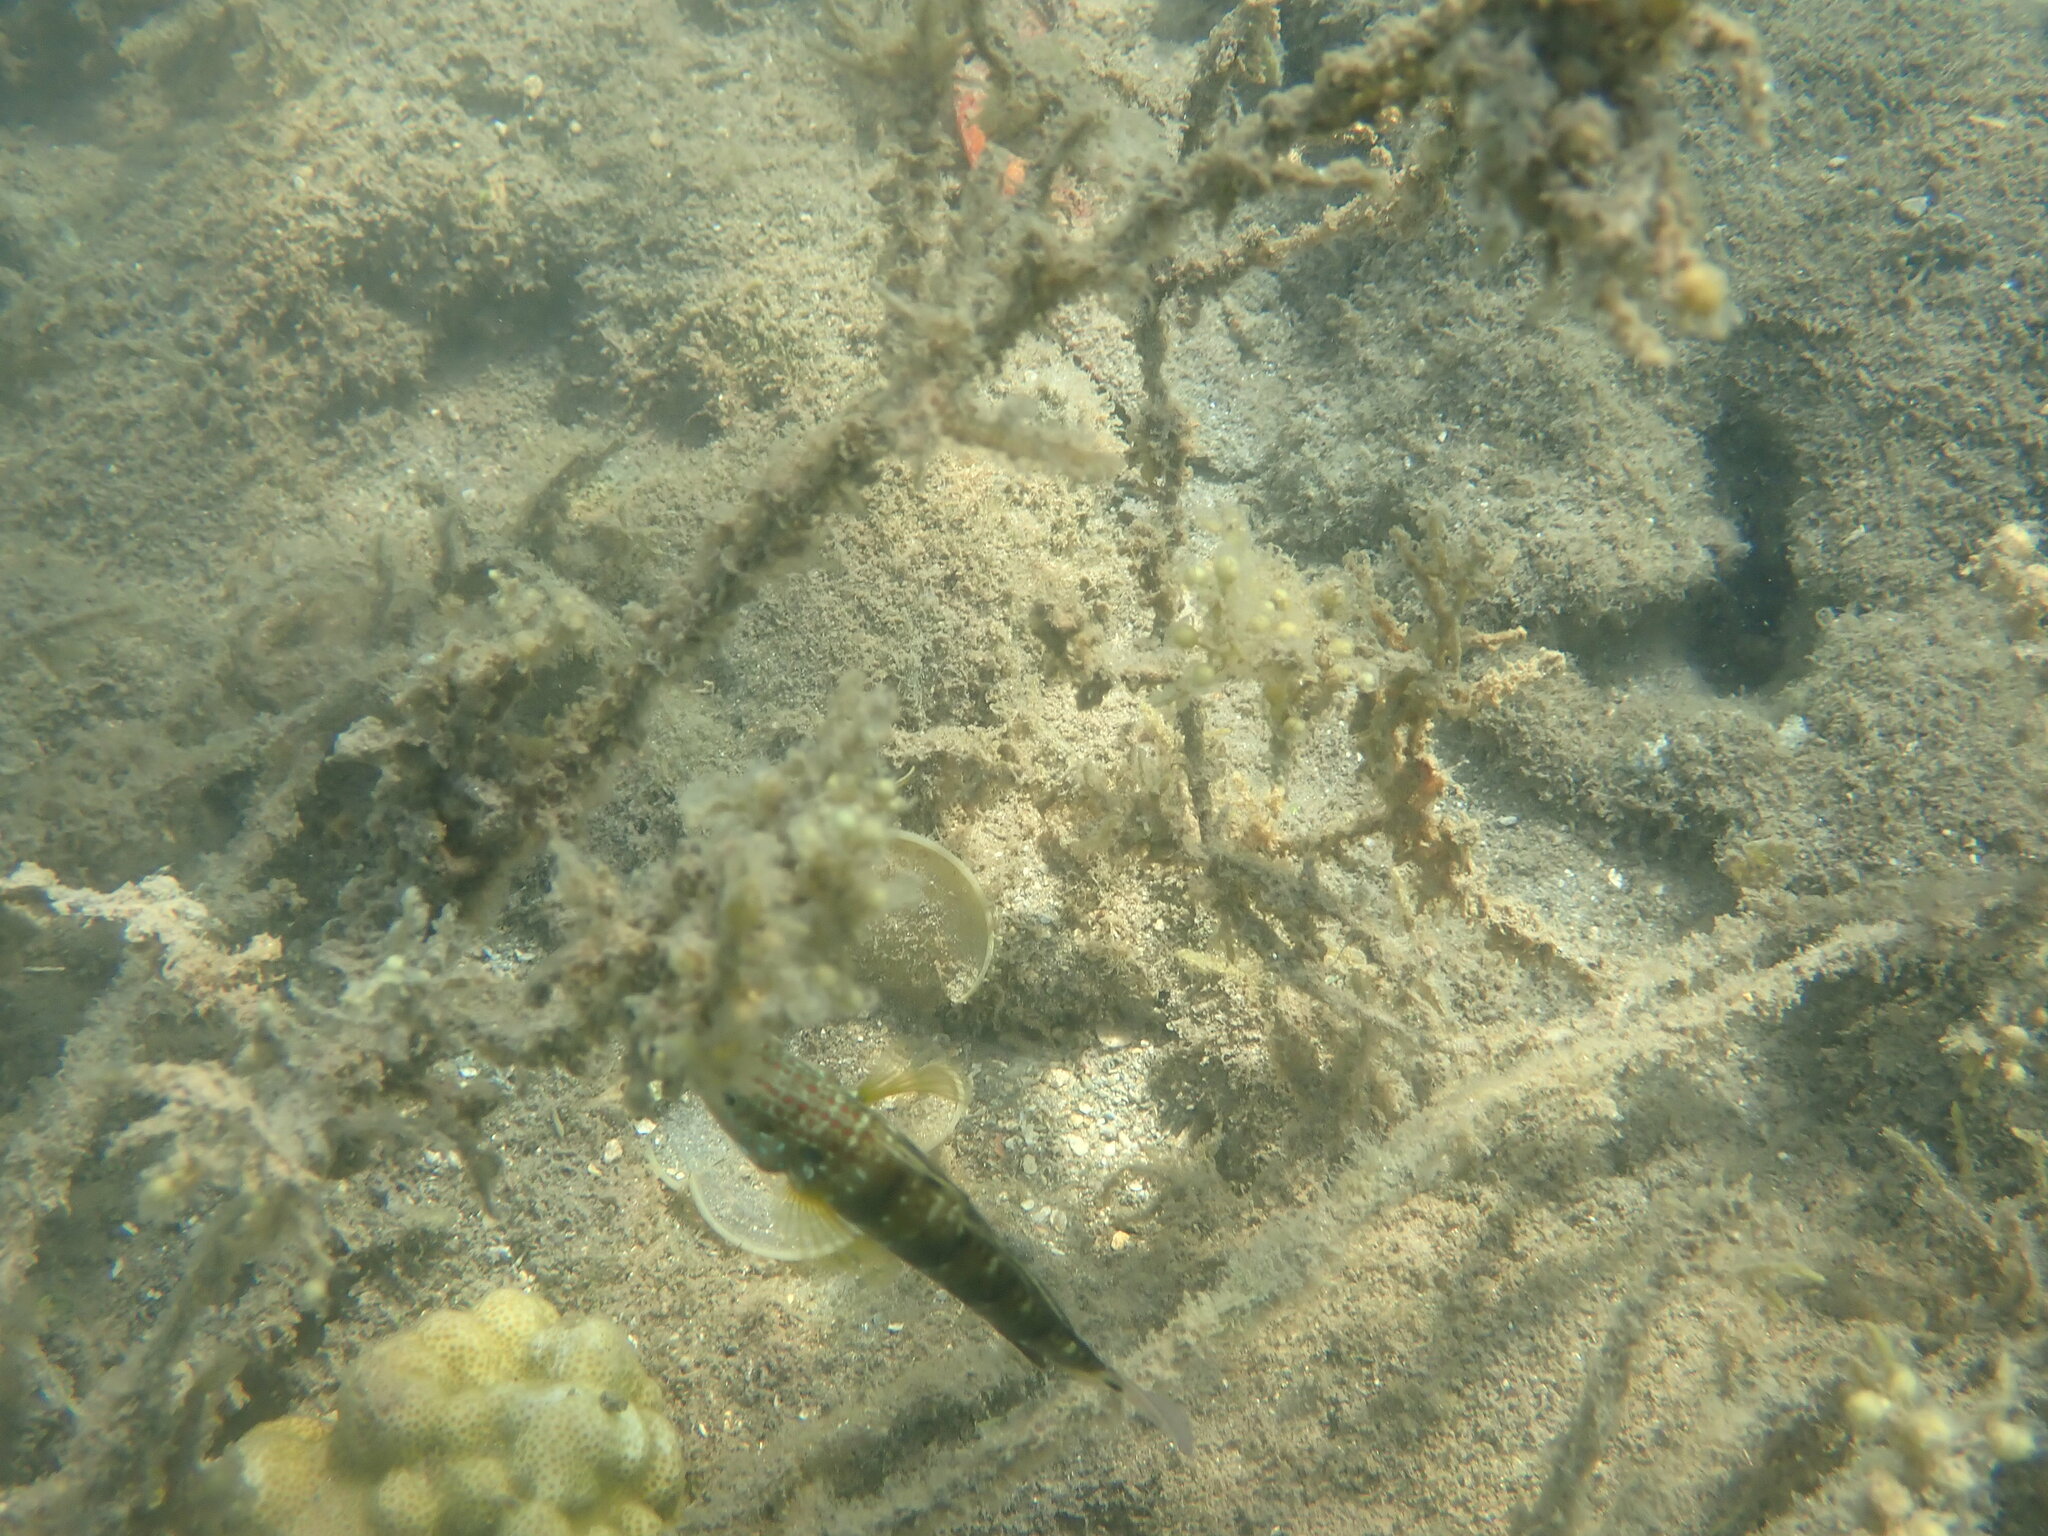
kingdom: Animalia
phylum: Chordata
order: Perciformes
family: Gobiidae
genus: Amblygobius
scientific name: Amblygobius phalaena
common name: Banded goby
